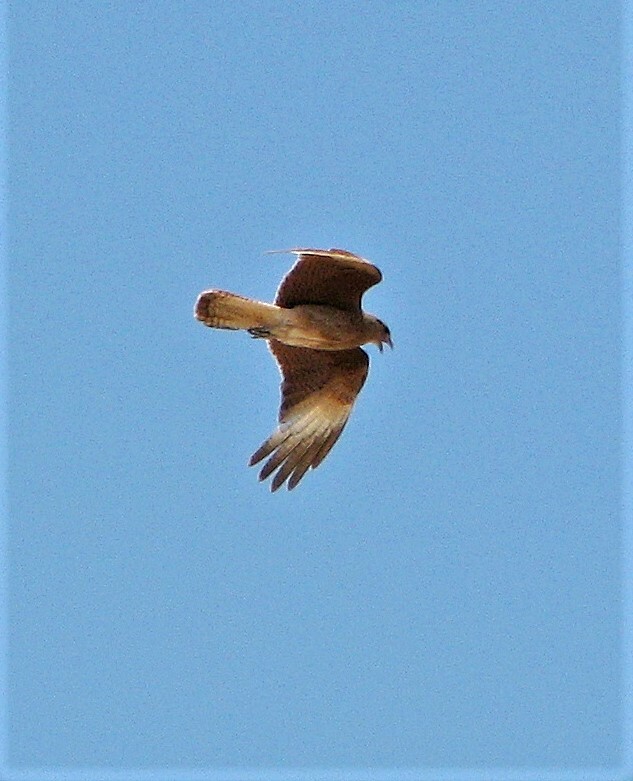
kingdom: Animalia
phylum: Chordata
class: Aves
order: Falconiformes
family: Falconidae
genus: Daptrius
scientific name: Daptrius
